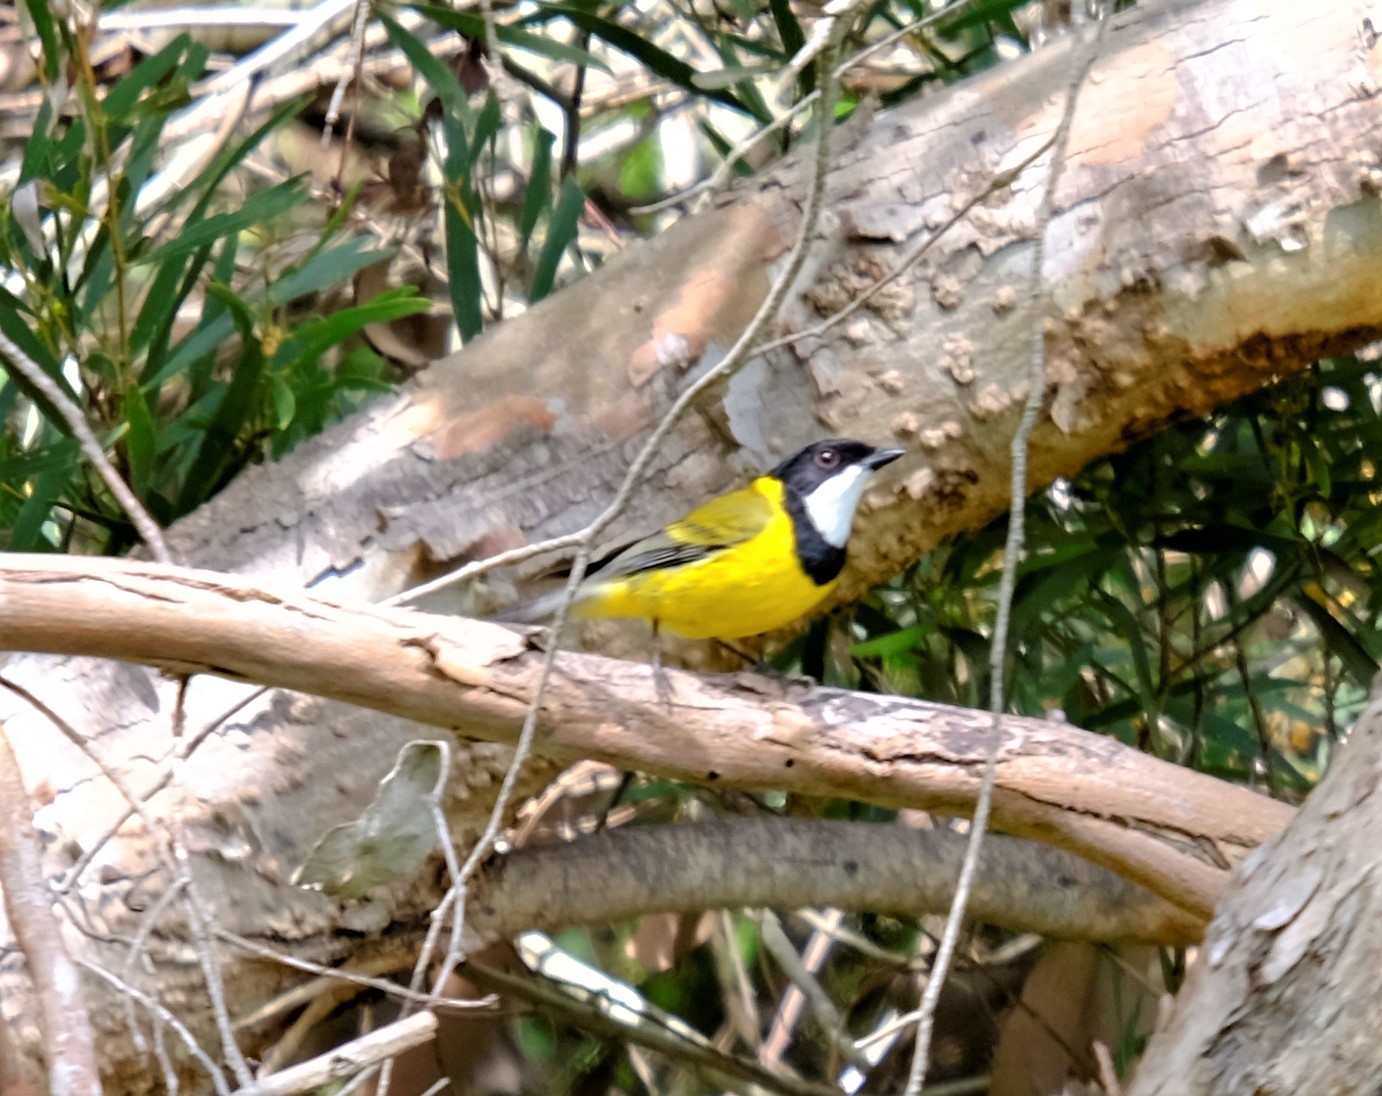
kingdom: Animalia
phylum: Chordata
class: Aves
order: Passeriformes
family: Pachycephalidae
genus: Pachycephala
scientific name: Pachycephala pectoralis
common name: Australian golden whistler
